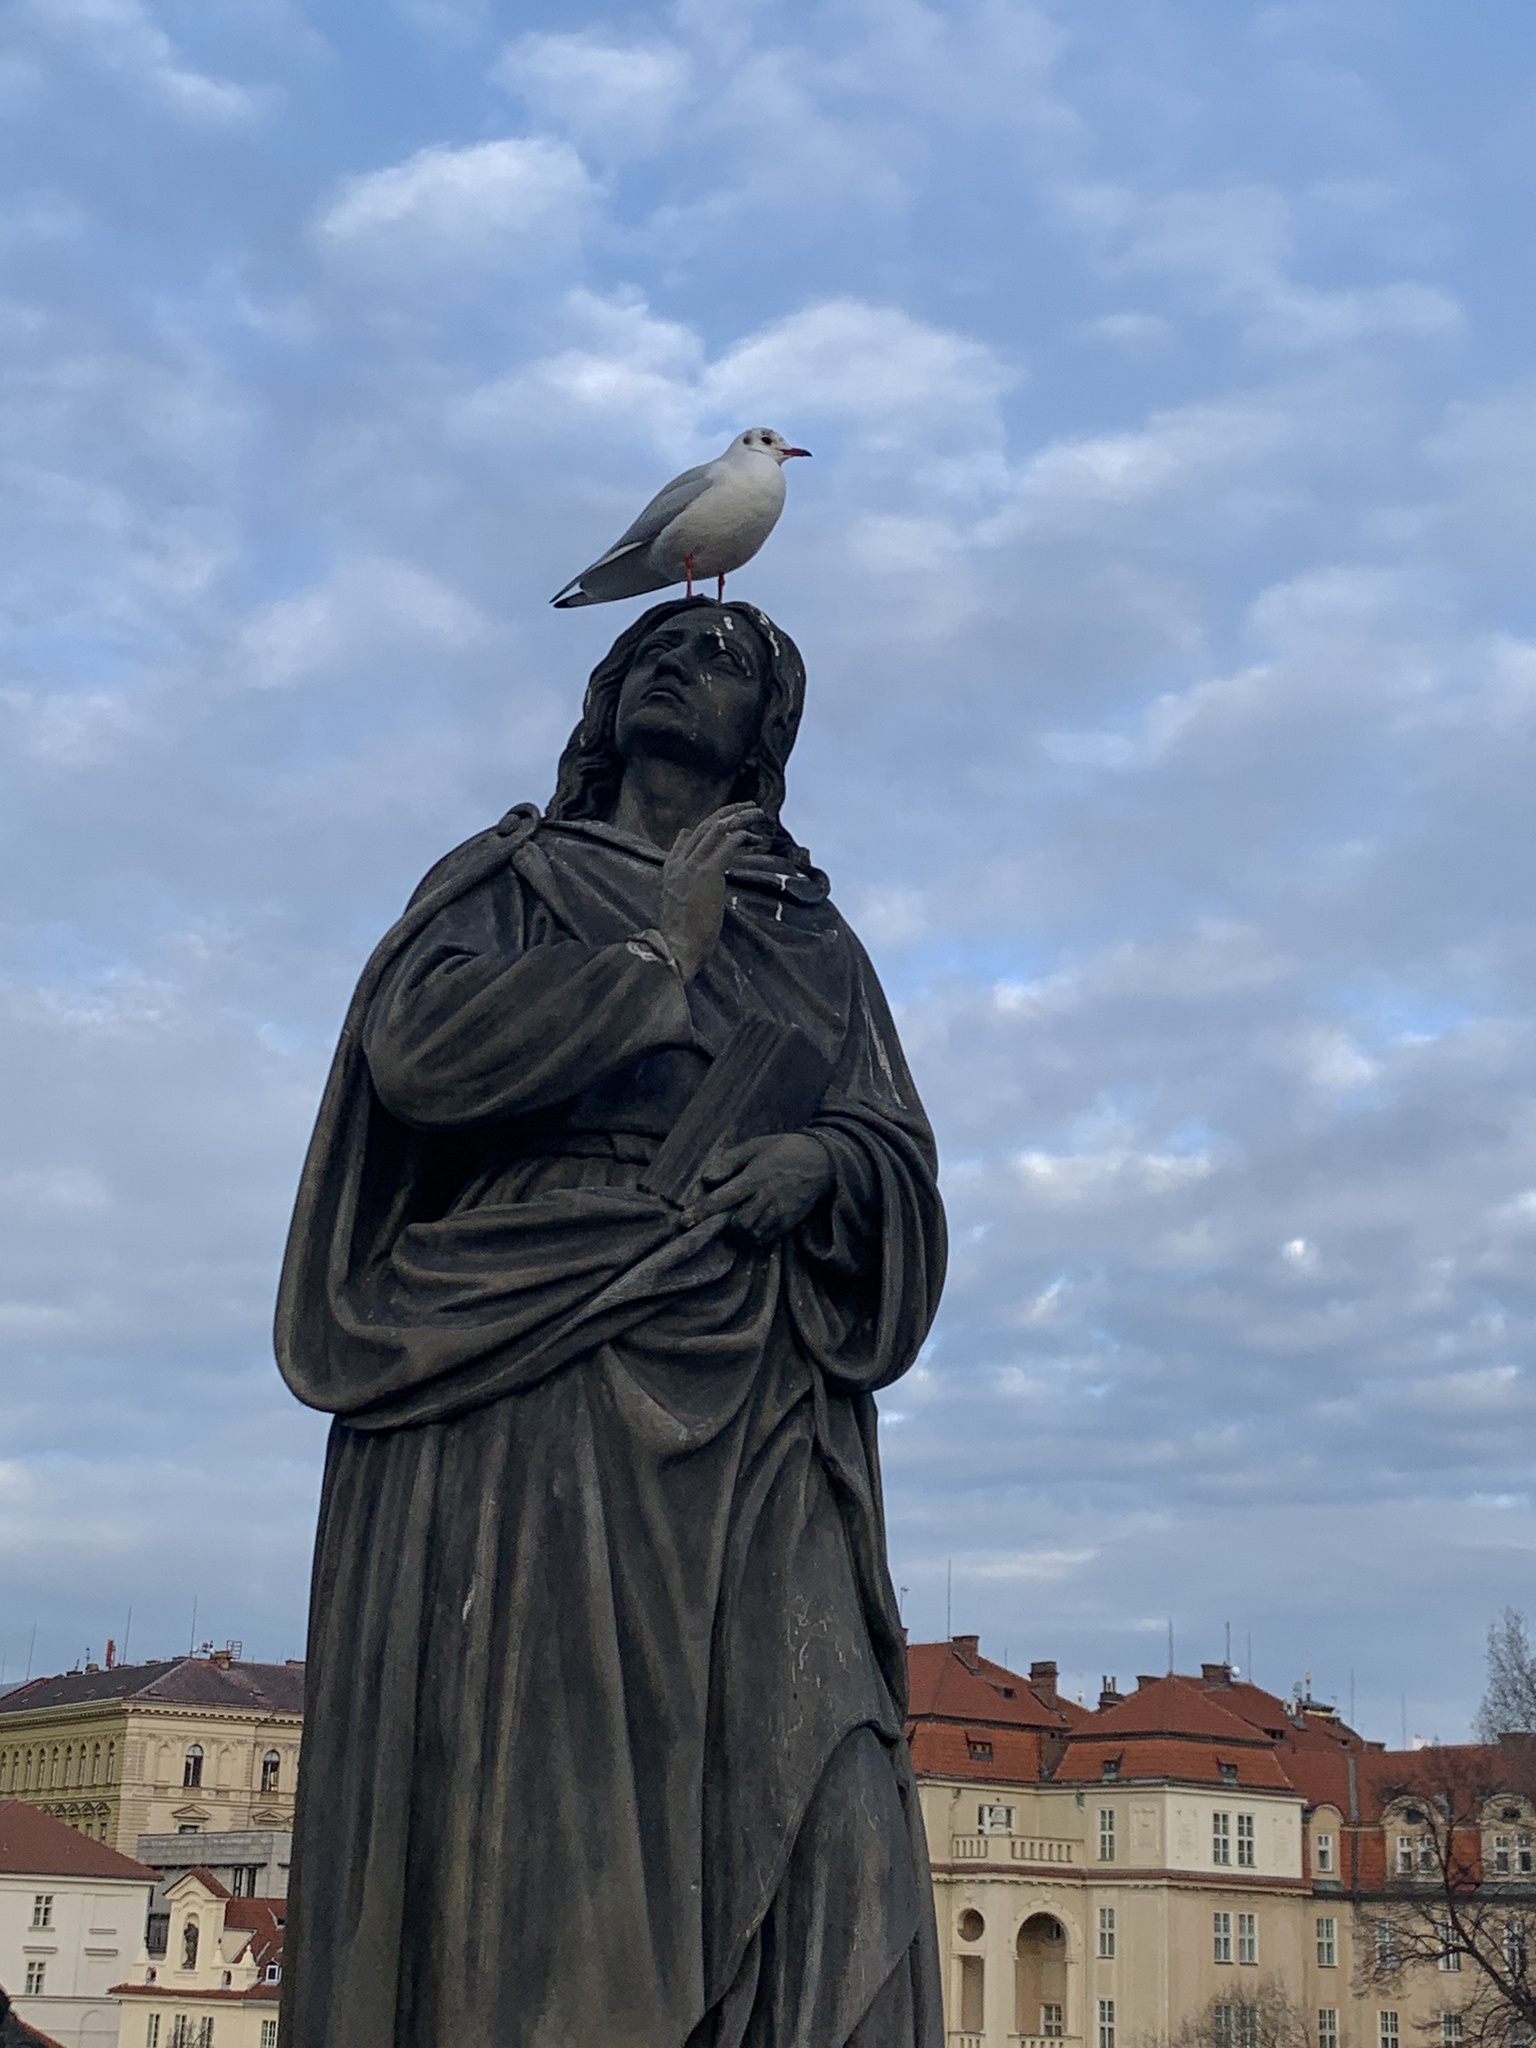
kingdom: Animalia
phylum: Chordata
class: Aves
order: Charadriiformes
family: Laridae
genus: Chroicocephalus
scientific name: Chroicocephalus ridibundus
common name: Black-headed gull
